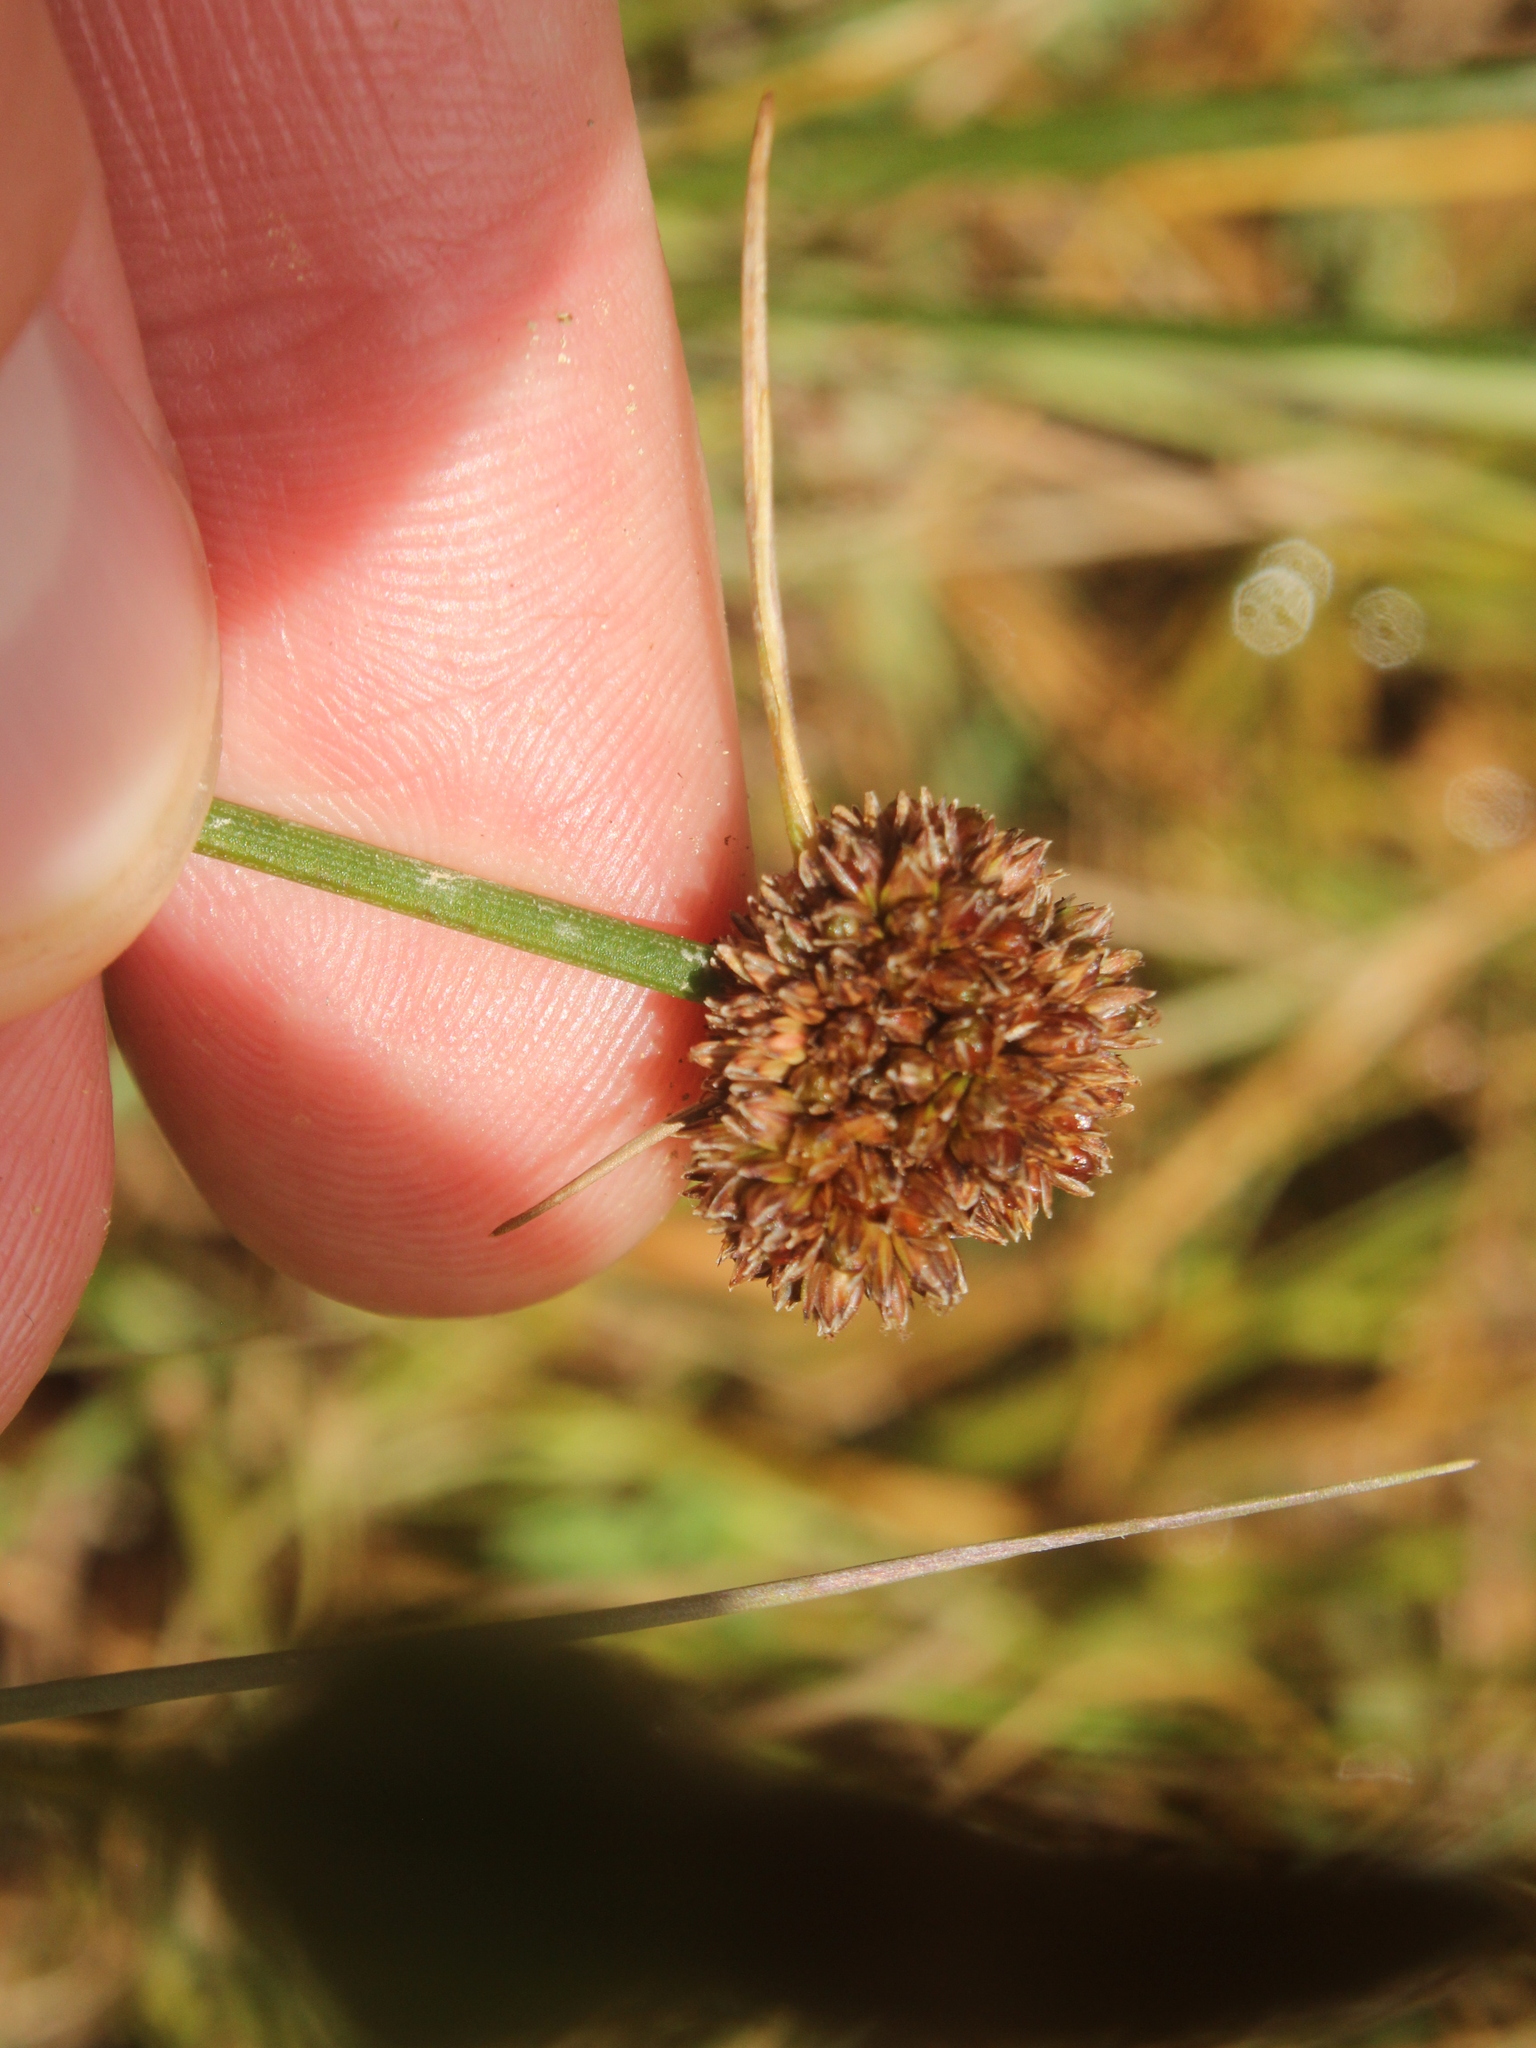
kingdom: Plantae
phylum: Tracheophyta
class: Liliopsida
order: Poales
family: Juncaceae
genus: Juncus
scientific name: Juncus caespiticius
